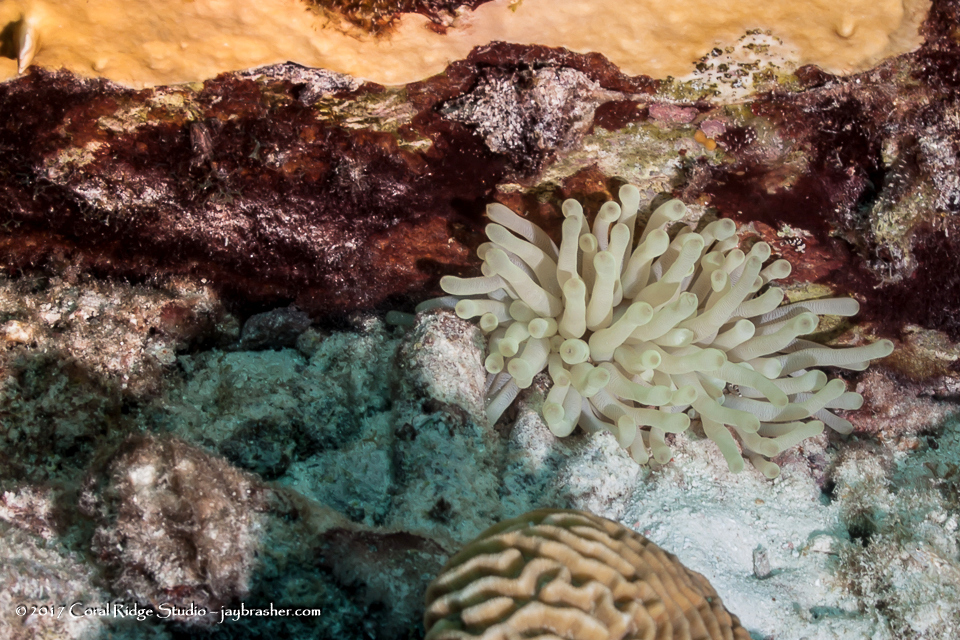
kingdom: Animalia
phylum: Cnidaria
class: Anthozoa
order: Actiniaria
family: Actiniidae
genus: Condylactis
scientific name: Condylactis gigantea
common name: Giant caribbean anemone
